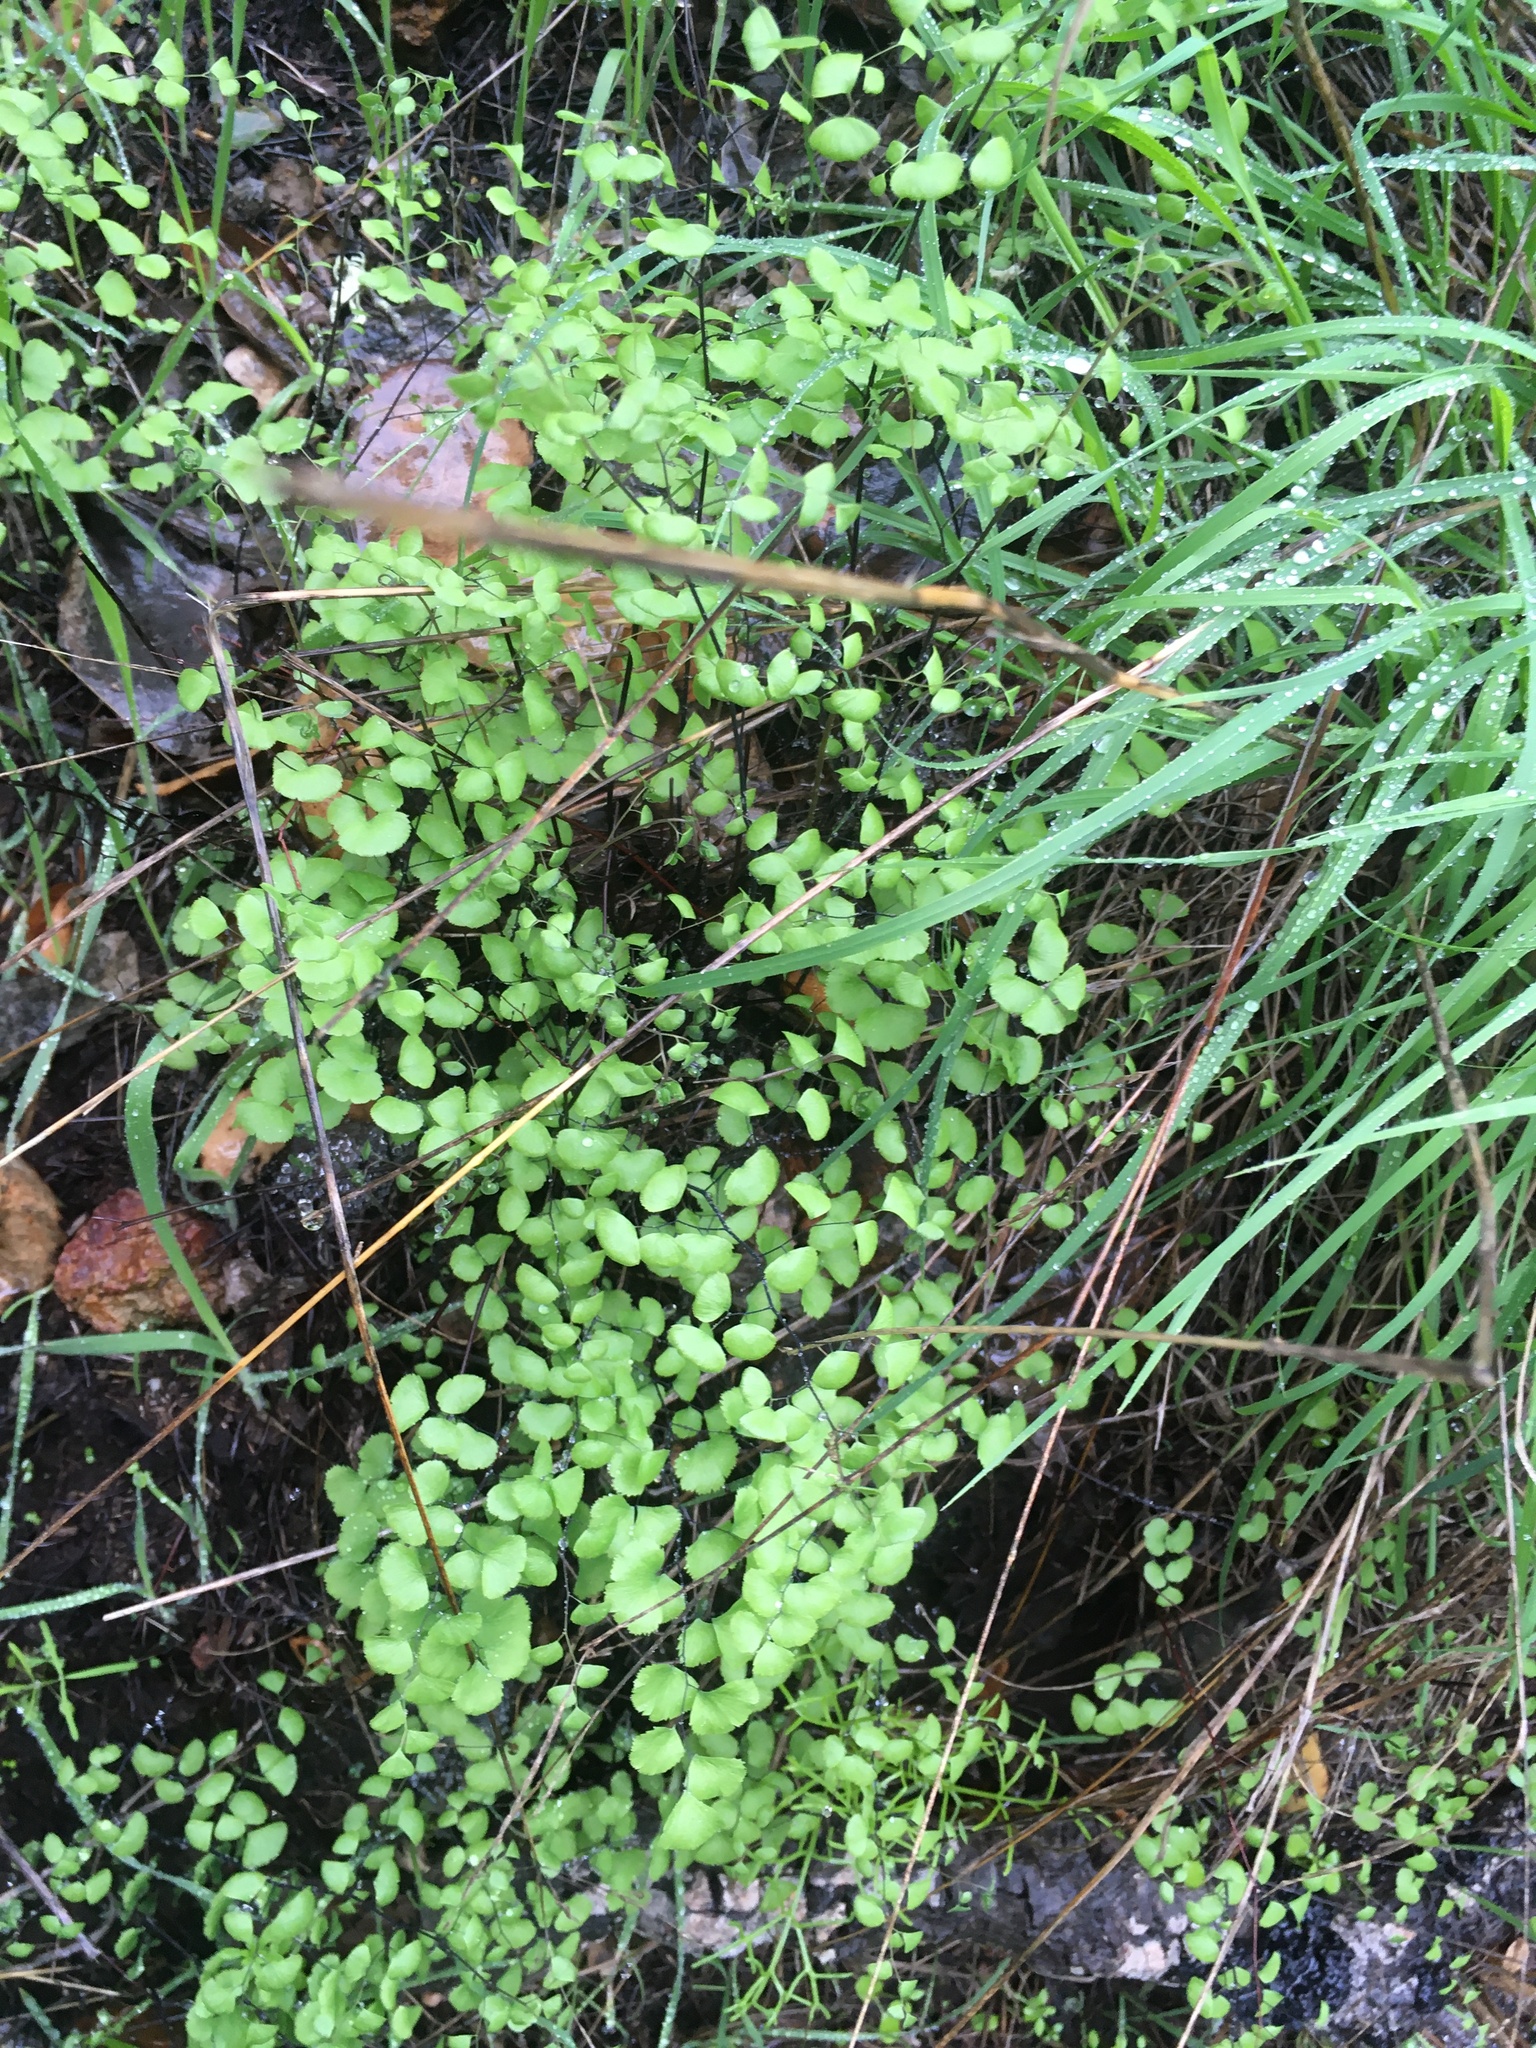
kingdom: Plantae
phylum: Tracheophyta
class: Polypodiopsida
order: Polypodiales
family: Pteridaceae
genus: Adiantum
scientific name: Adiantum jordanii
